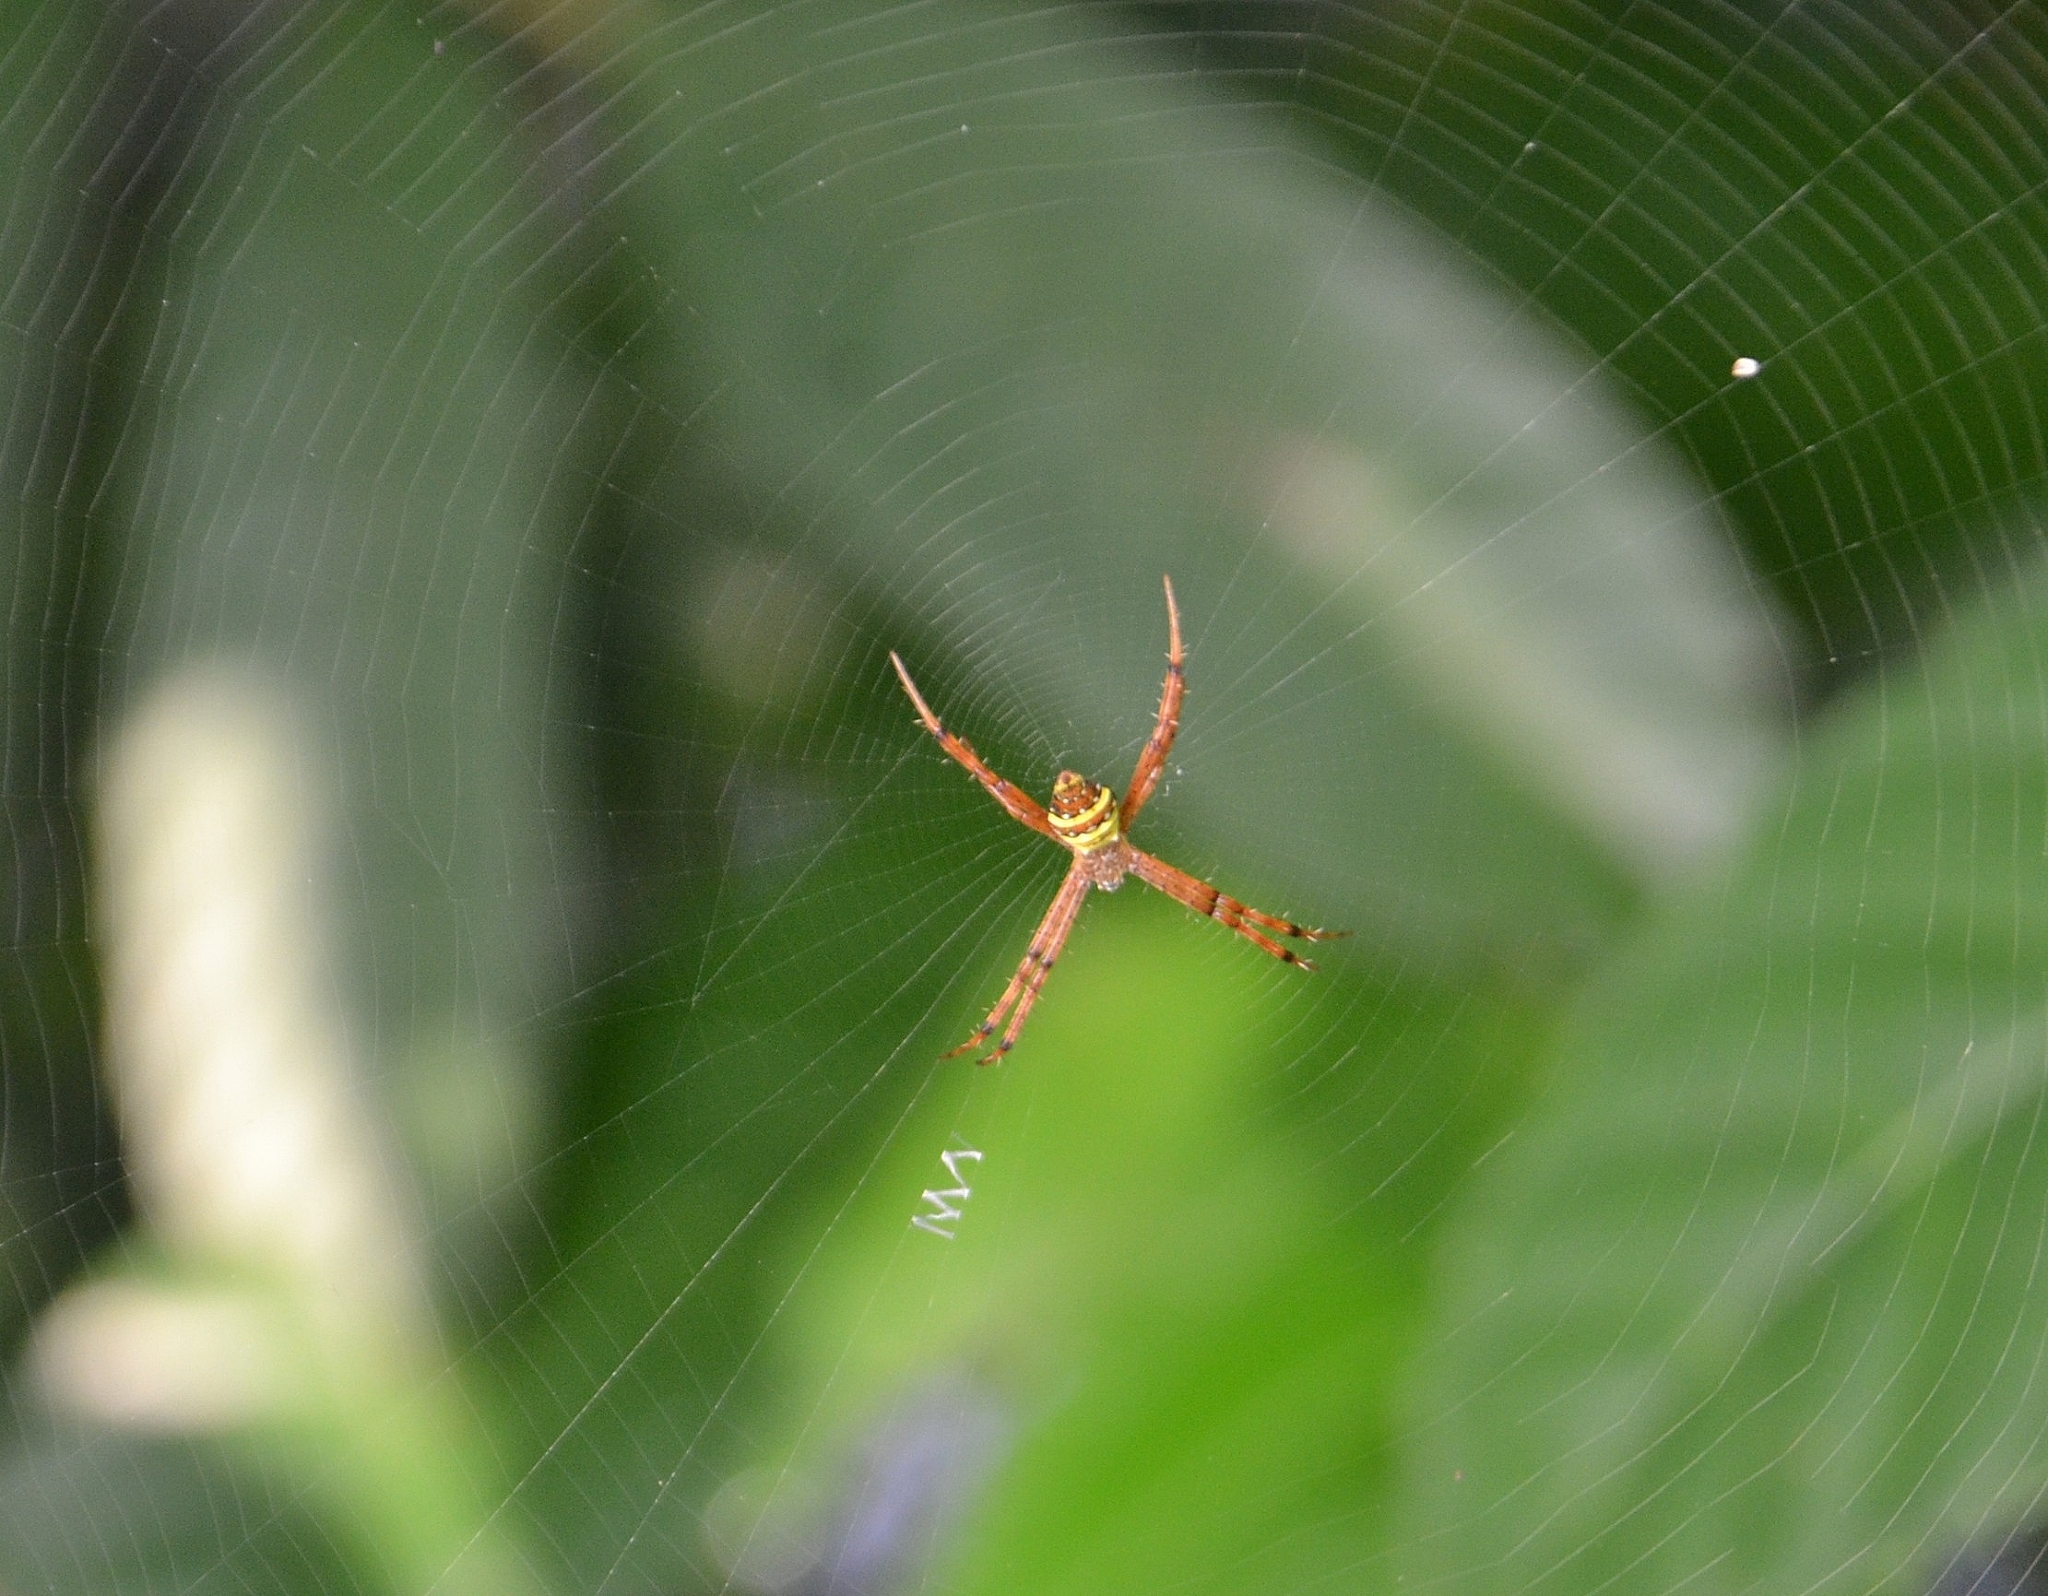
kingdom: Animalia
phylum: Arthropoda
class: Arachnida
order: Araneae
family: Araneidae
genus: Argiope
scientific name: Argiope pulchella
